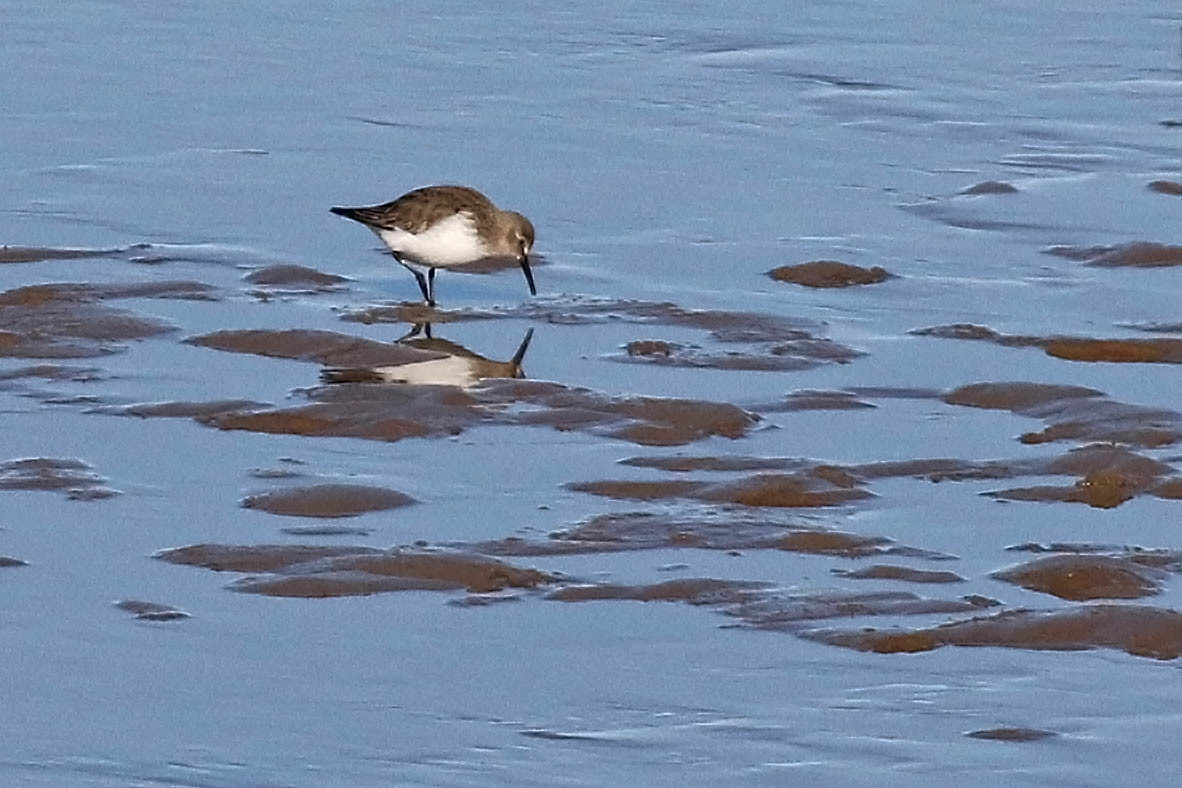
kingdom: Animalia
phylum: Chordata
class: Aves
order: Charadriiformes
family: Scolopacidae
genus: Calidris
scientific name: Calidris alpina
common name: Dunlin
